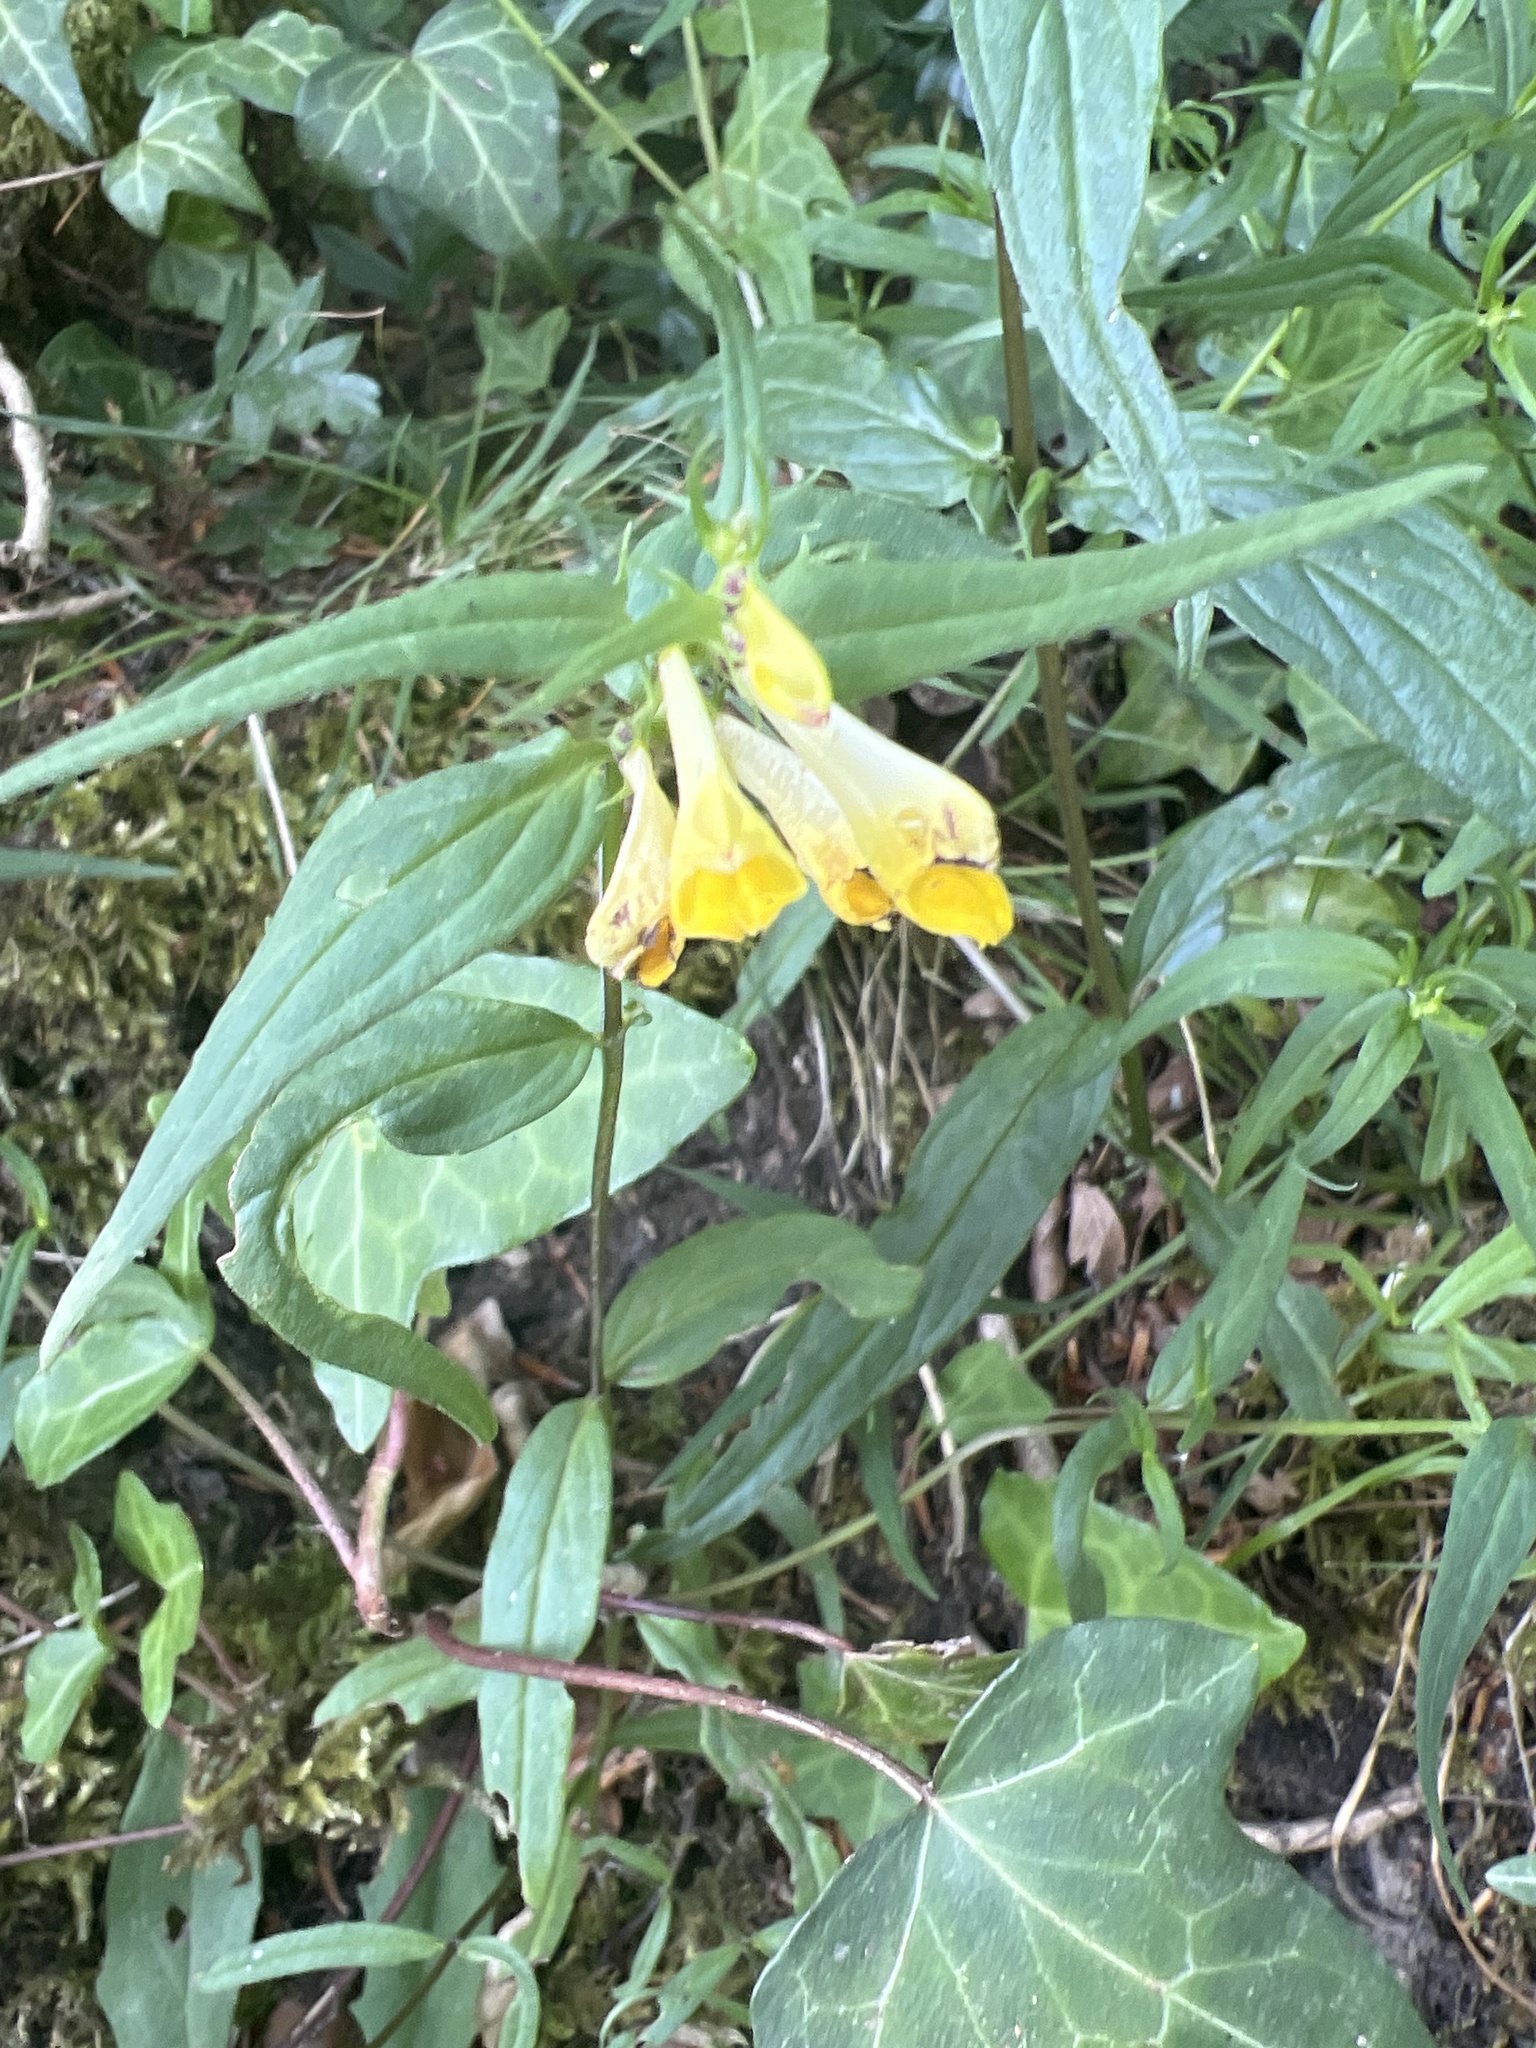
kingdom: Plantae
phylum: Tracheophyta
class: Magnoliopsida
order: Lamiales
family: Orobanchaceae
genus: Melampyrum
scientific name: Melampyrum pratense
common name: Common cow-wheat
